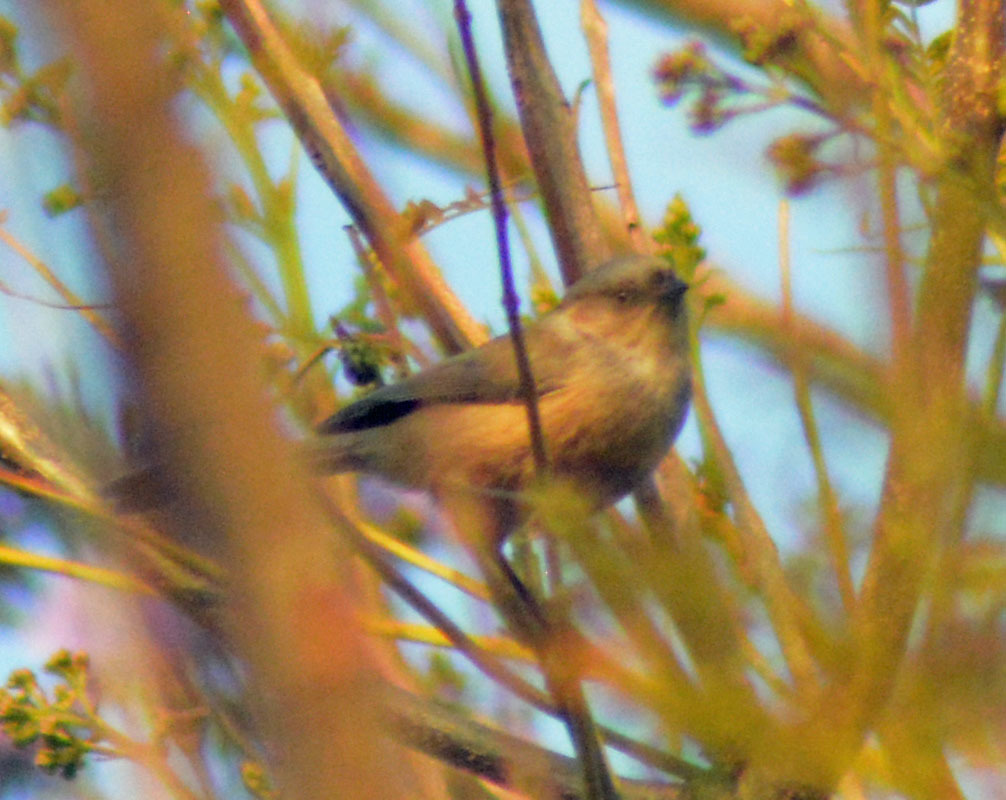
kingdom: Animalia
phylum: Chordata
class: Aves
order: Passeriformes
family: Aegithalidae
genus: Psaltriparus
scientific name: Psaltriparus minimus
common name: American bushtit
